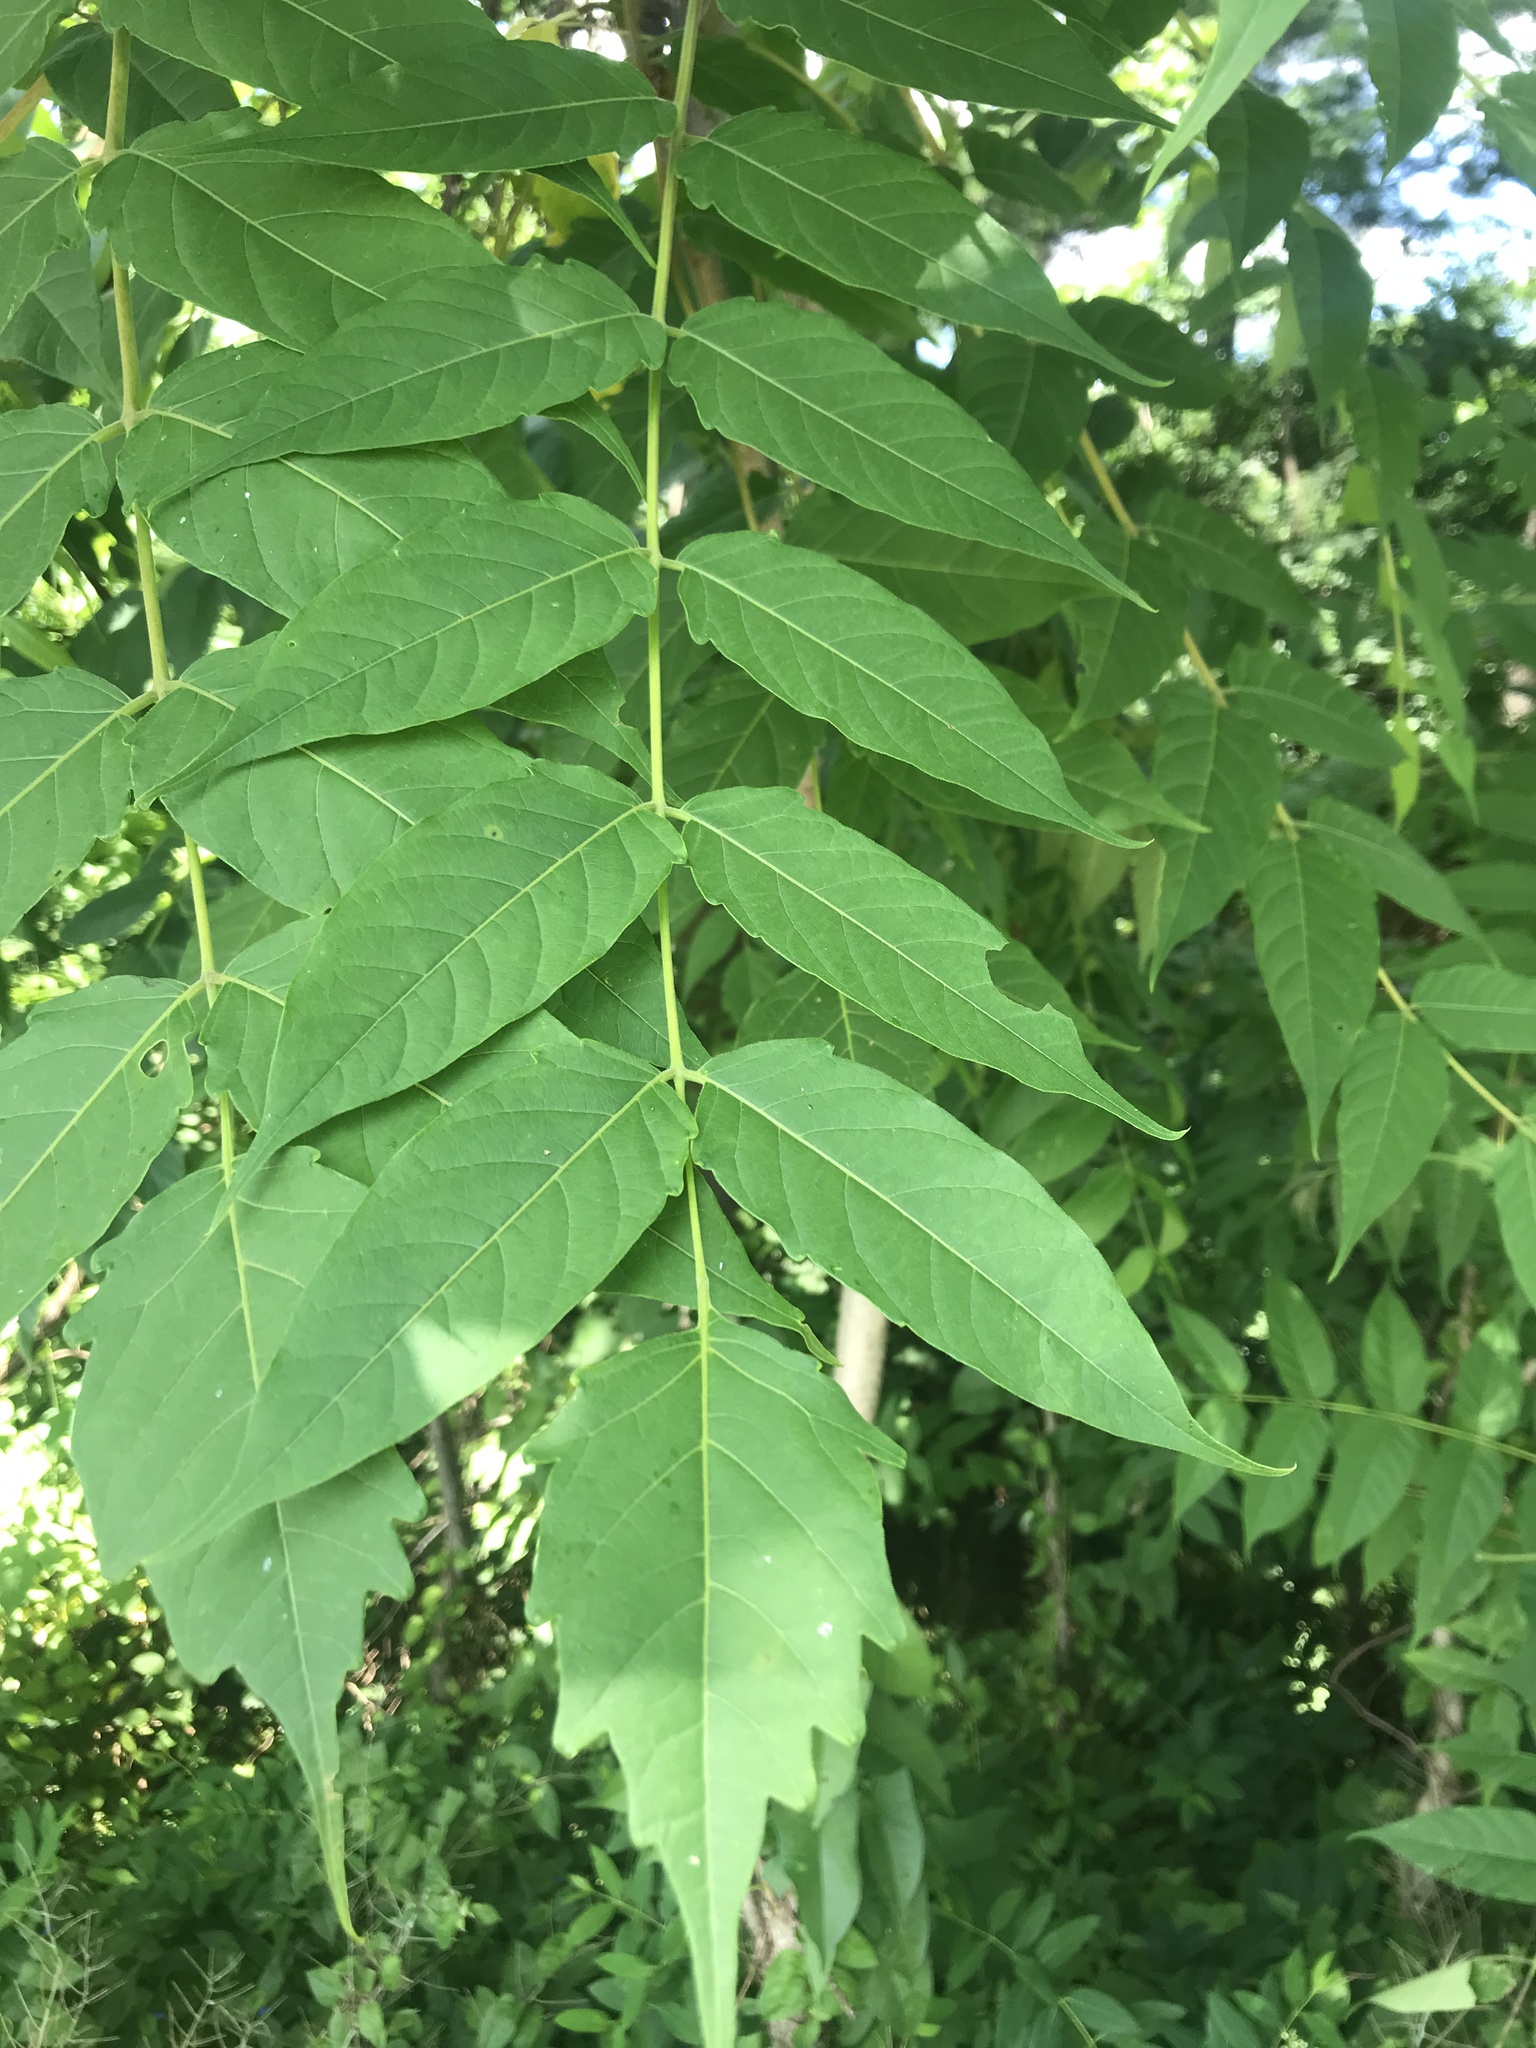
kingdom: Plantae
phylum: Tracheophyta
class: Magnoliopsida
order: Sapindales
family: Simaroubaceae
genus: Ailanthus
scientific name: Ailanthus altissima
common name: Tree-of-heaven
